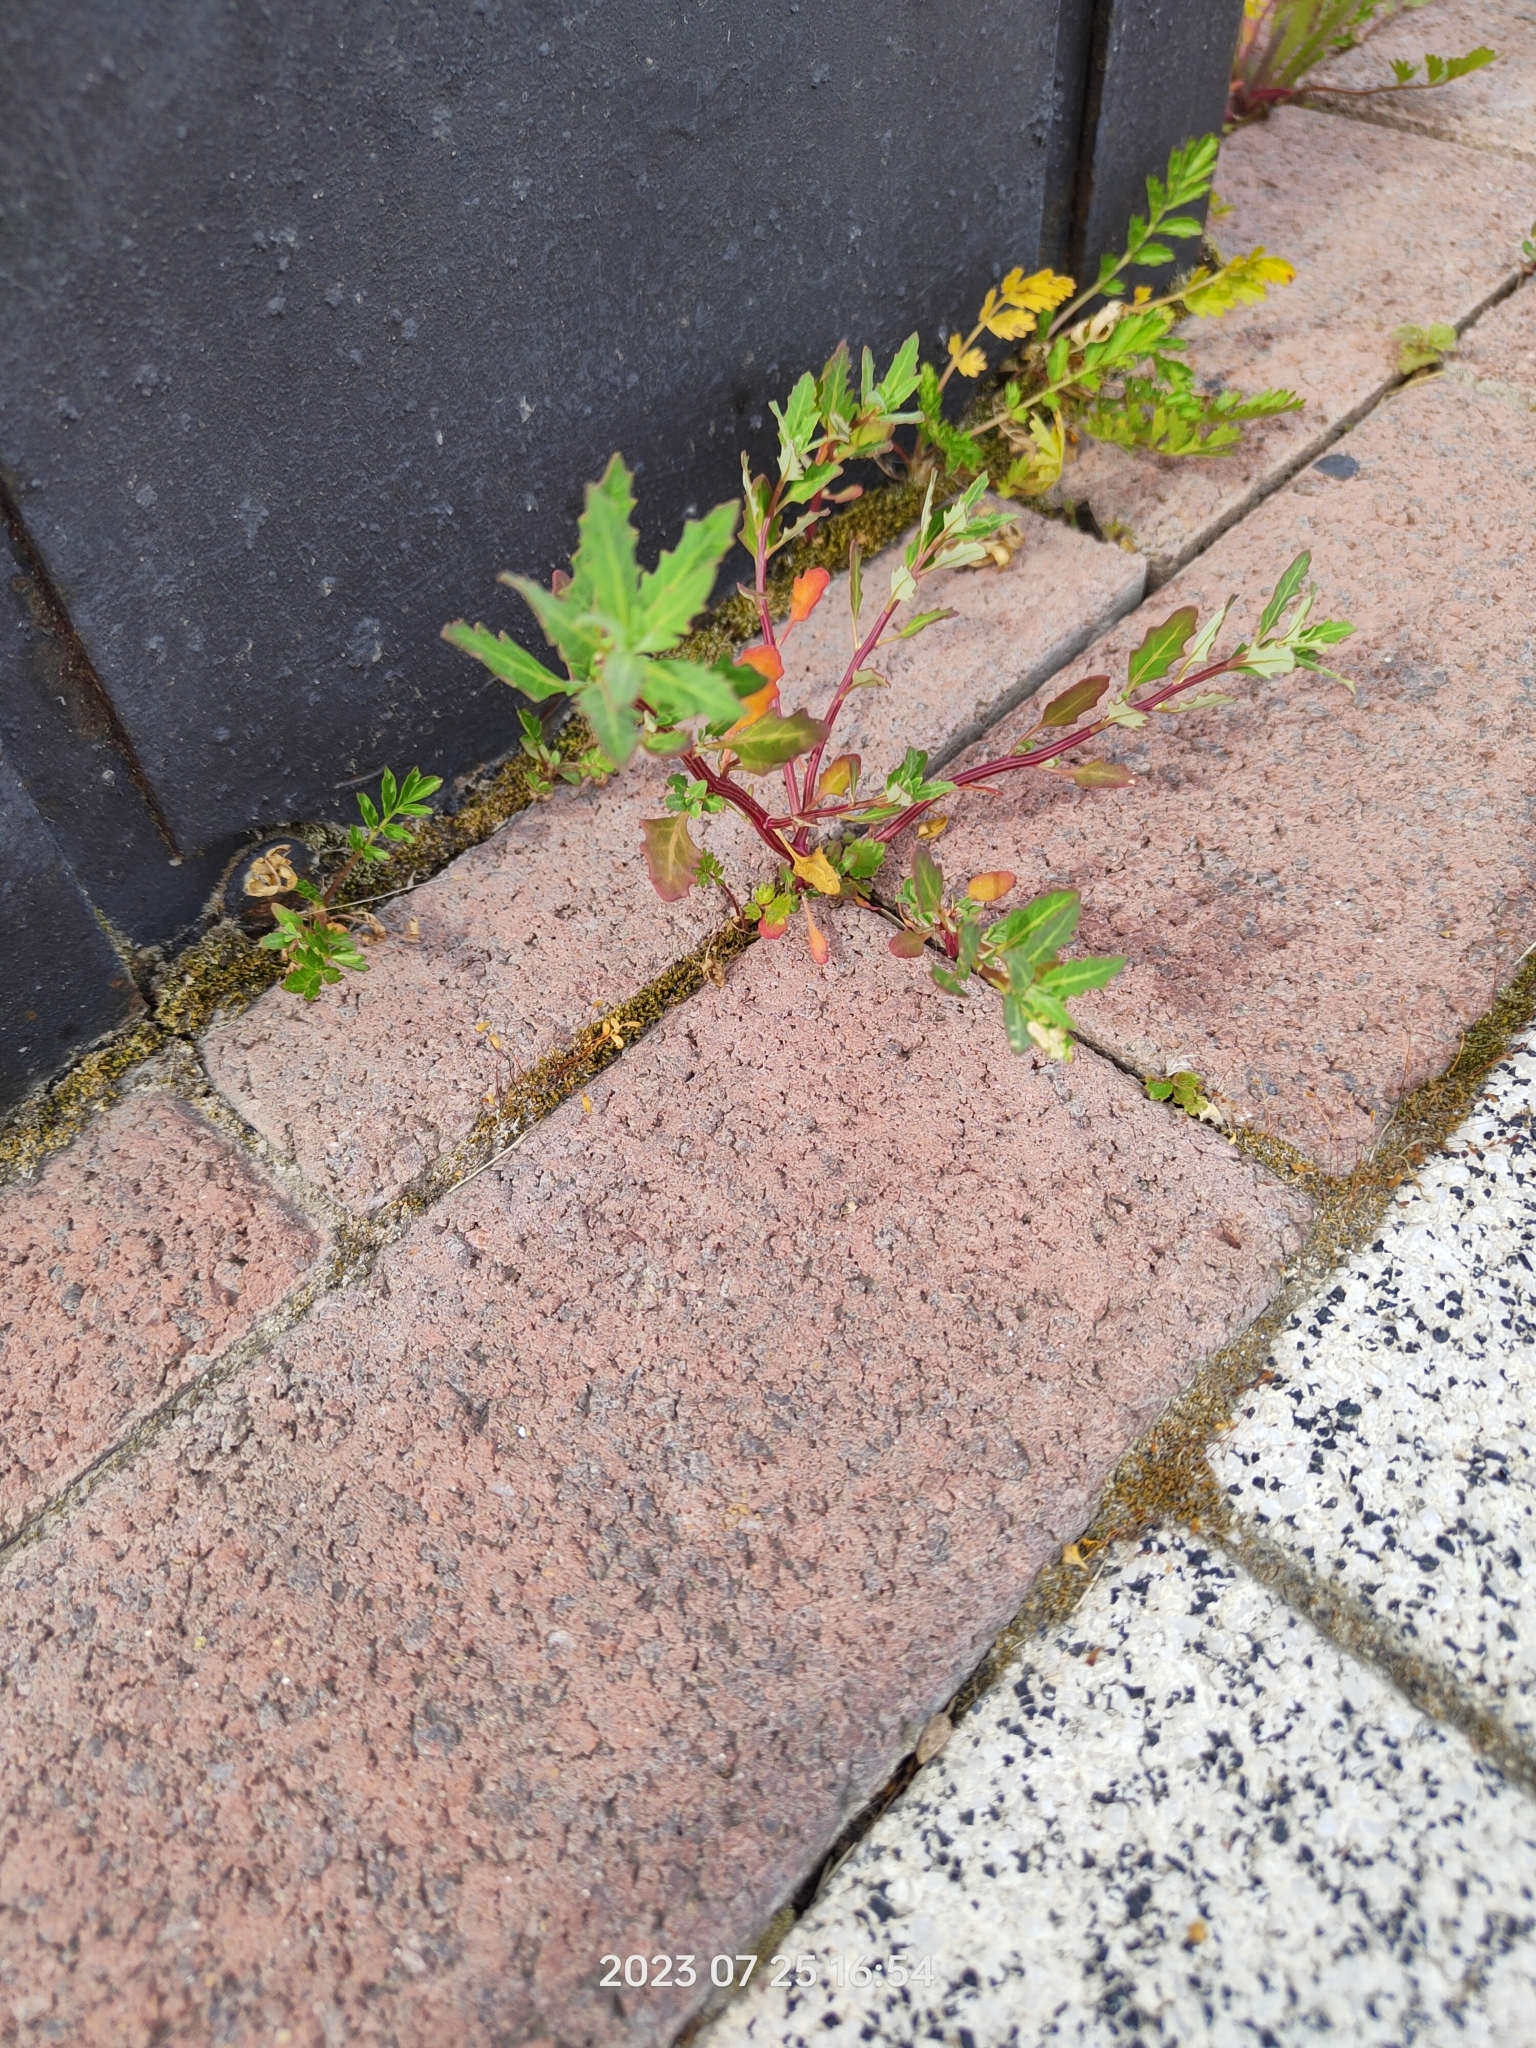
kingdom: Plantae
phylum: Tracheophyta
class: Magnoliopsida
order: Caryophyllales
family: Amaranthaceae
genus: Oxybasis
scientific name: Oxybasis glauca
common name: Glaucous goosefoot
